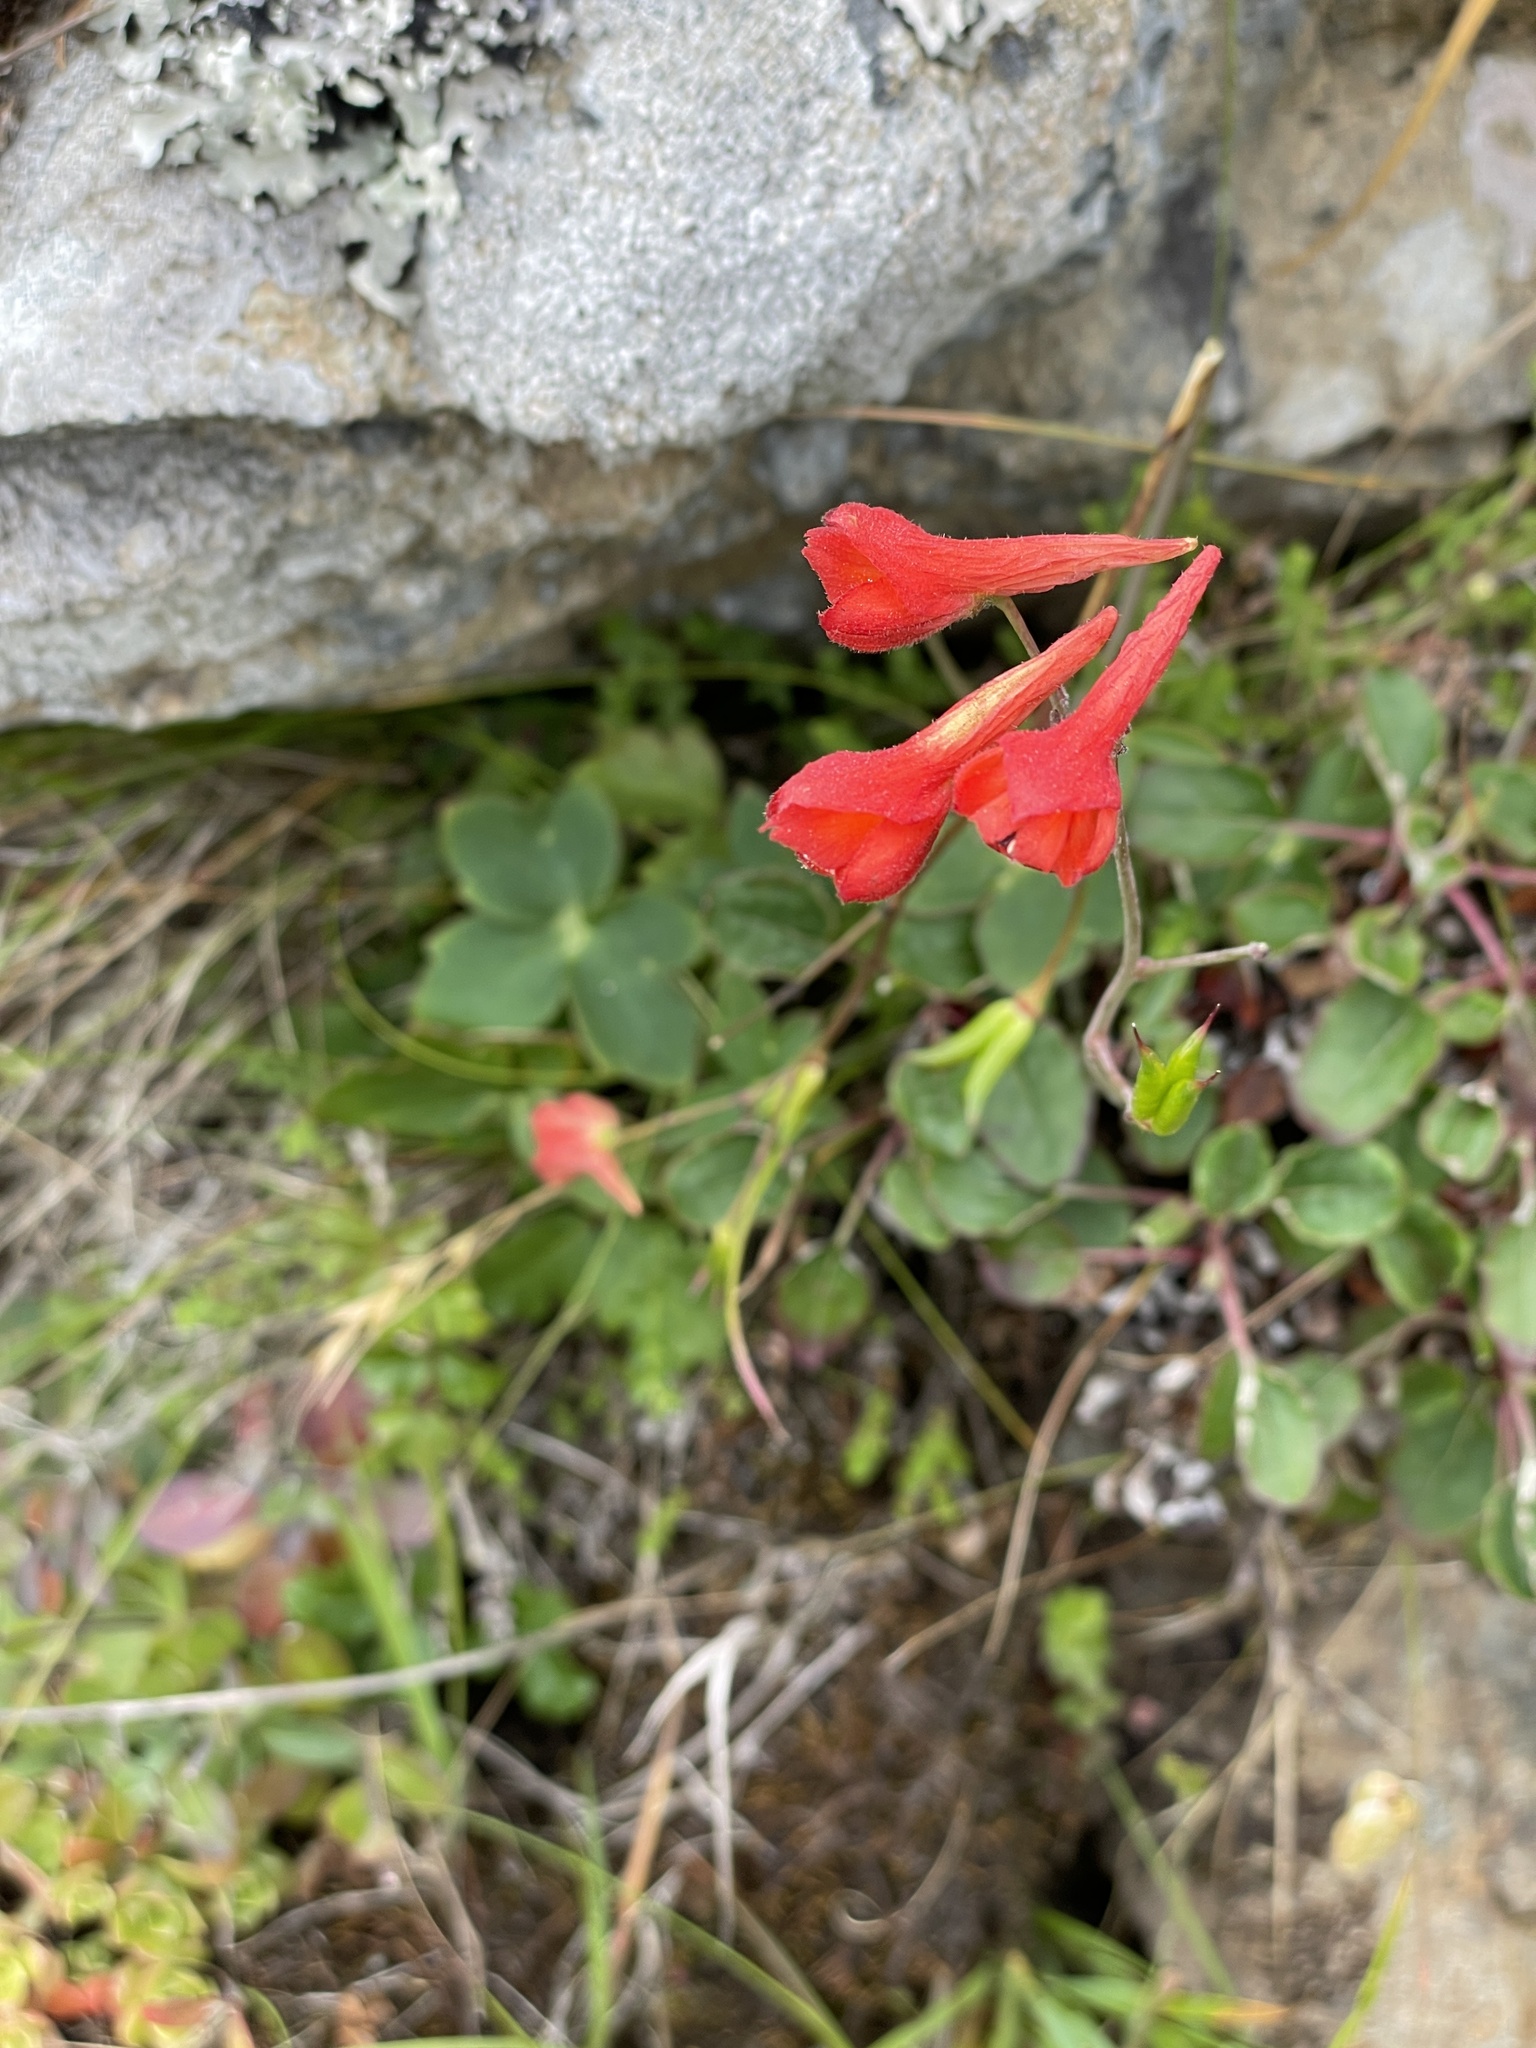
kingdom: Plantae
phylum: Tracheophyta
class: Magnoliopsida
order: Ranunculales
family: Ranunculaceae
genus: Delphinium
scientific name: Delphinium nudicaule
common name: Red larkspur
